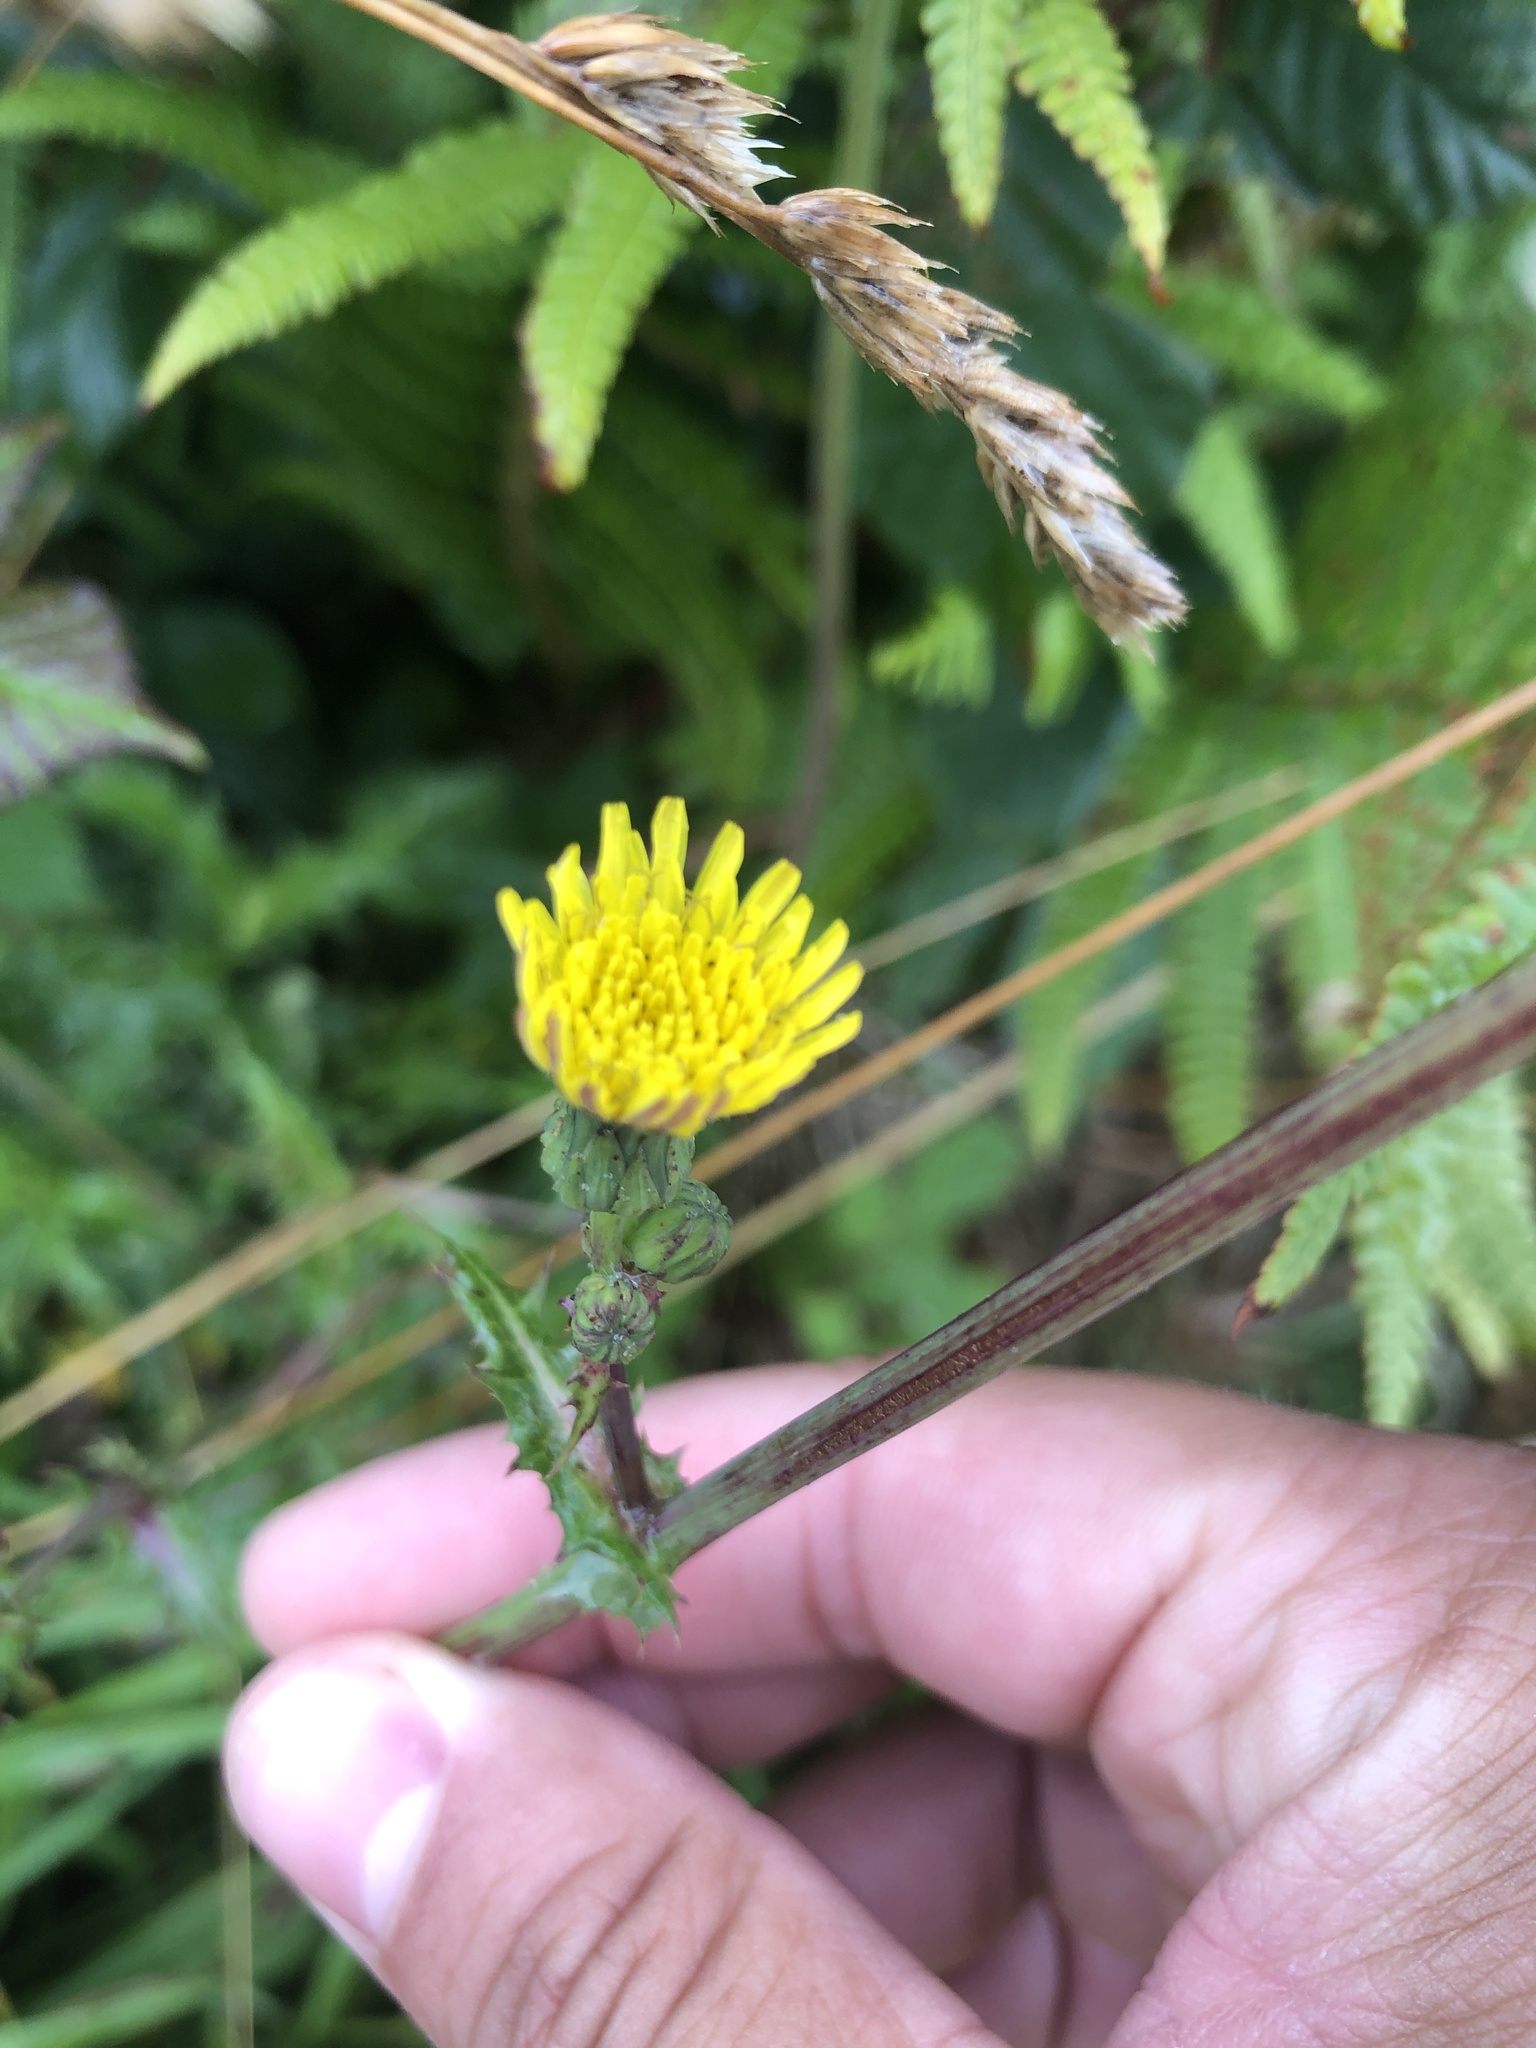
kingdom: Plantae
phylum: Tracheophyta
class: Magnoliopsida
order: Asterales
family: Asteraceae
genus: Sonchus
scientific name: Sonchus asper
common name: Prickly sow-thistle
